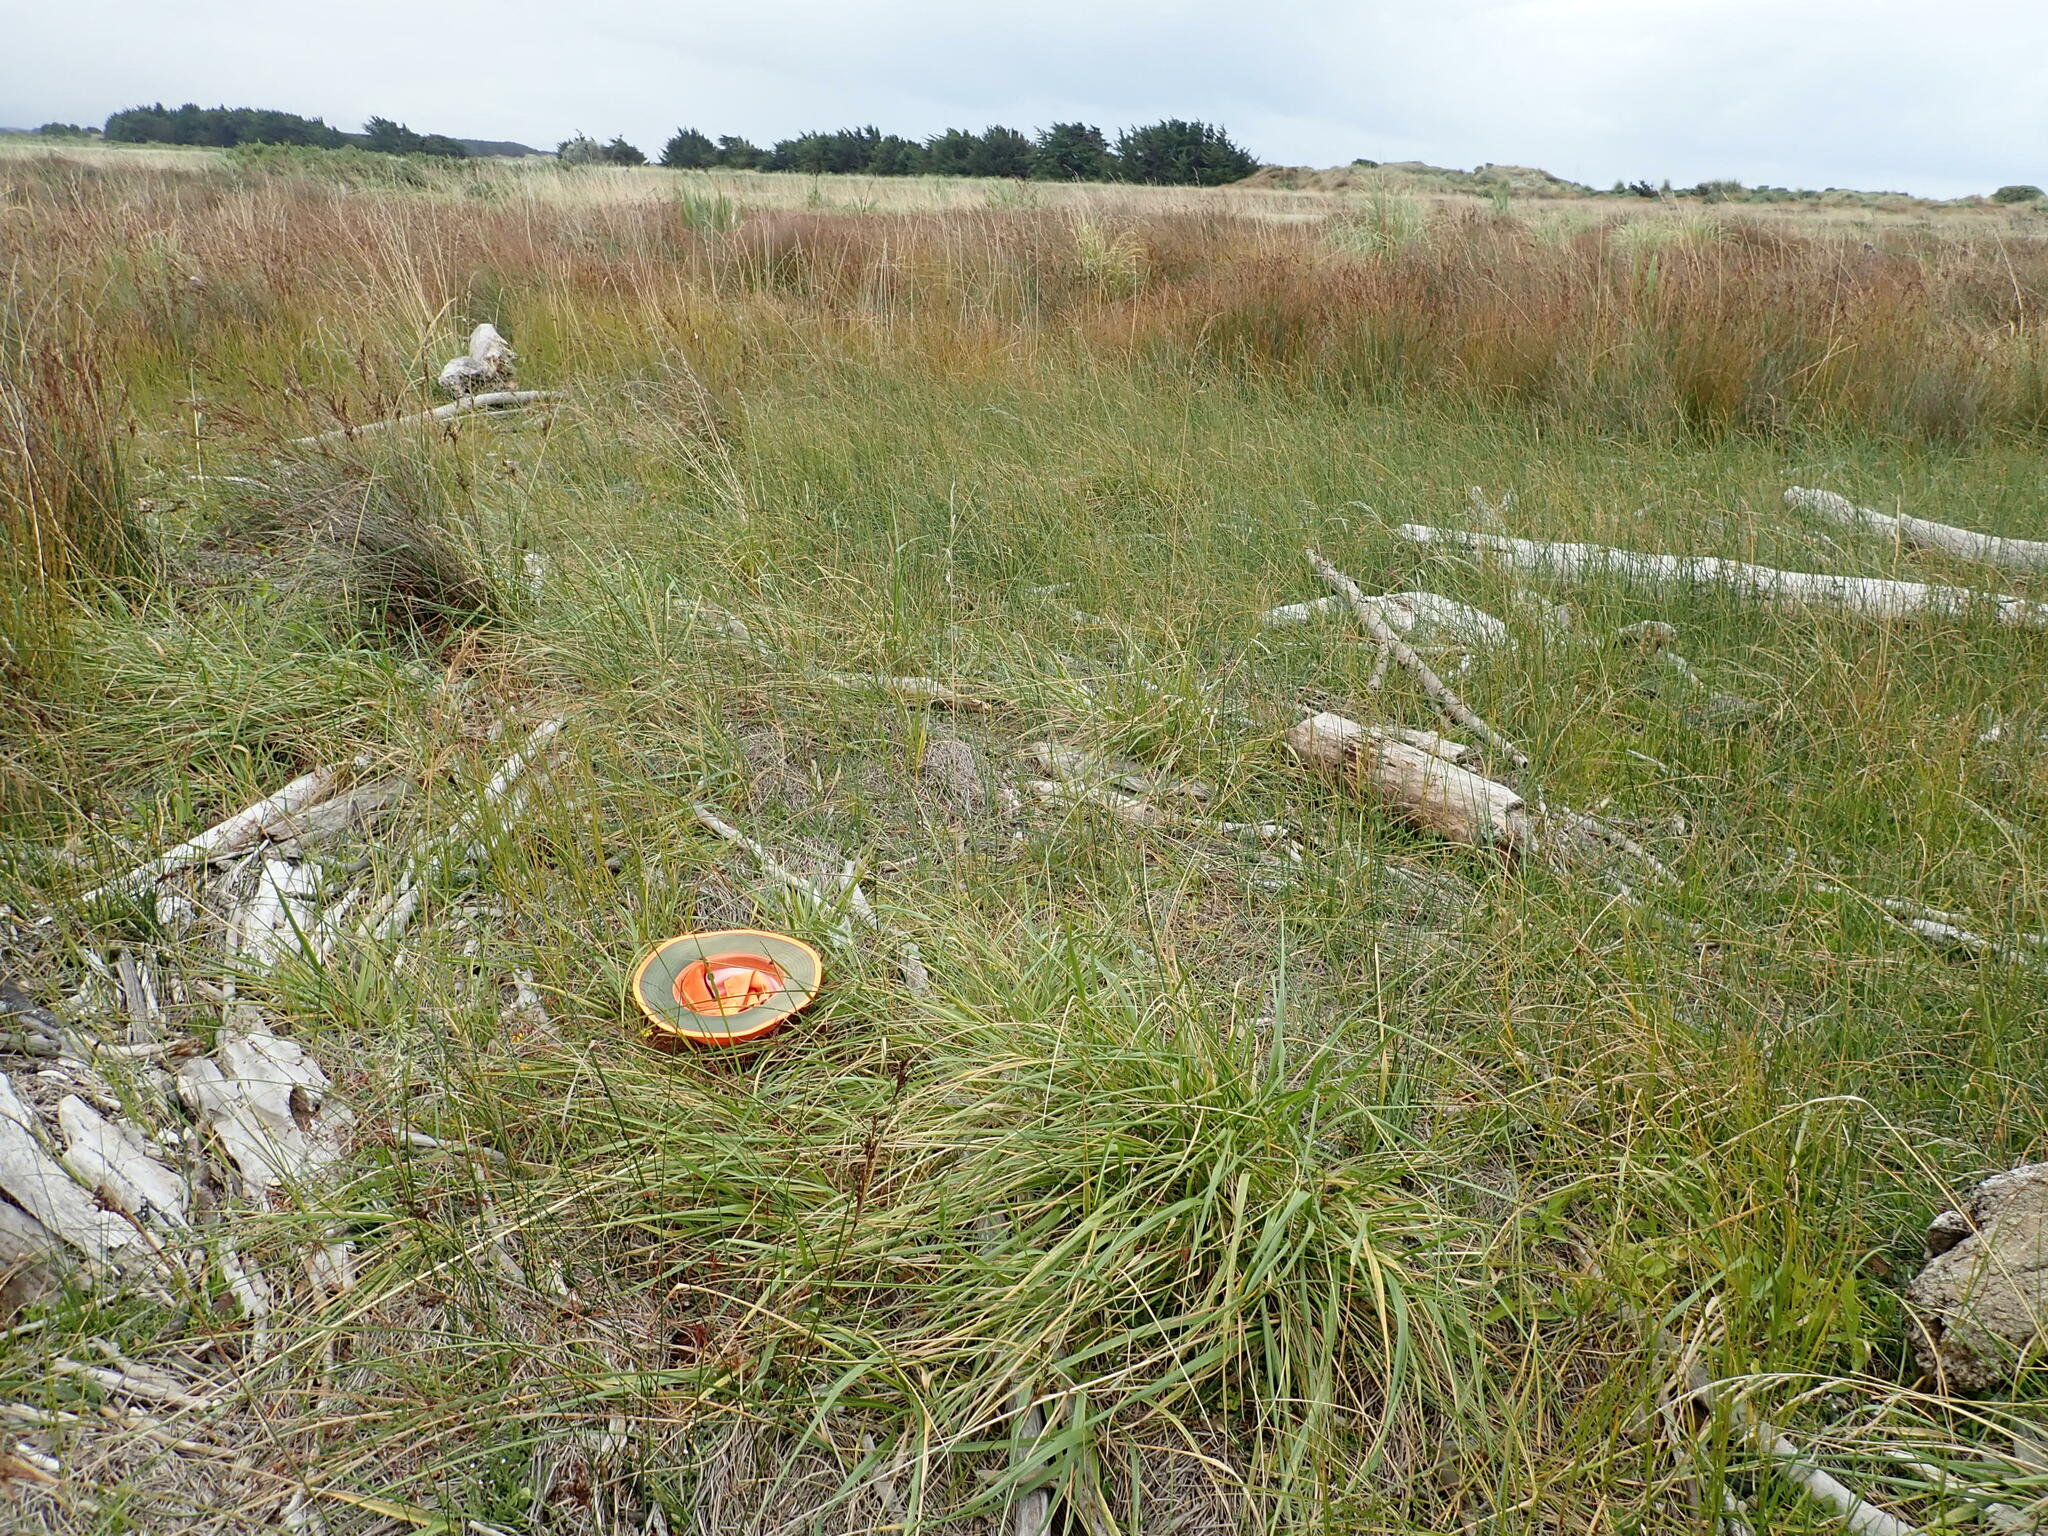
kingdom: Plantae
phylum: Tracheophyta
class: Magnoliopsida
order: Fabales
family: Fabaceae
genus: Lotus
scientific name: Lotus pedunculatus
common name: Greater birdsfoot-trefoil
